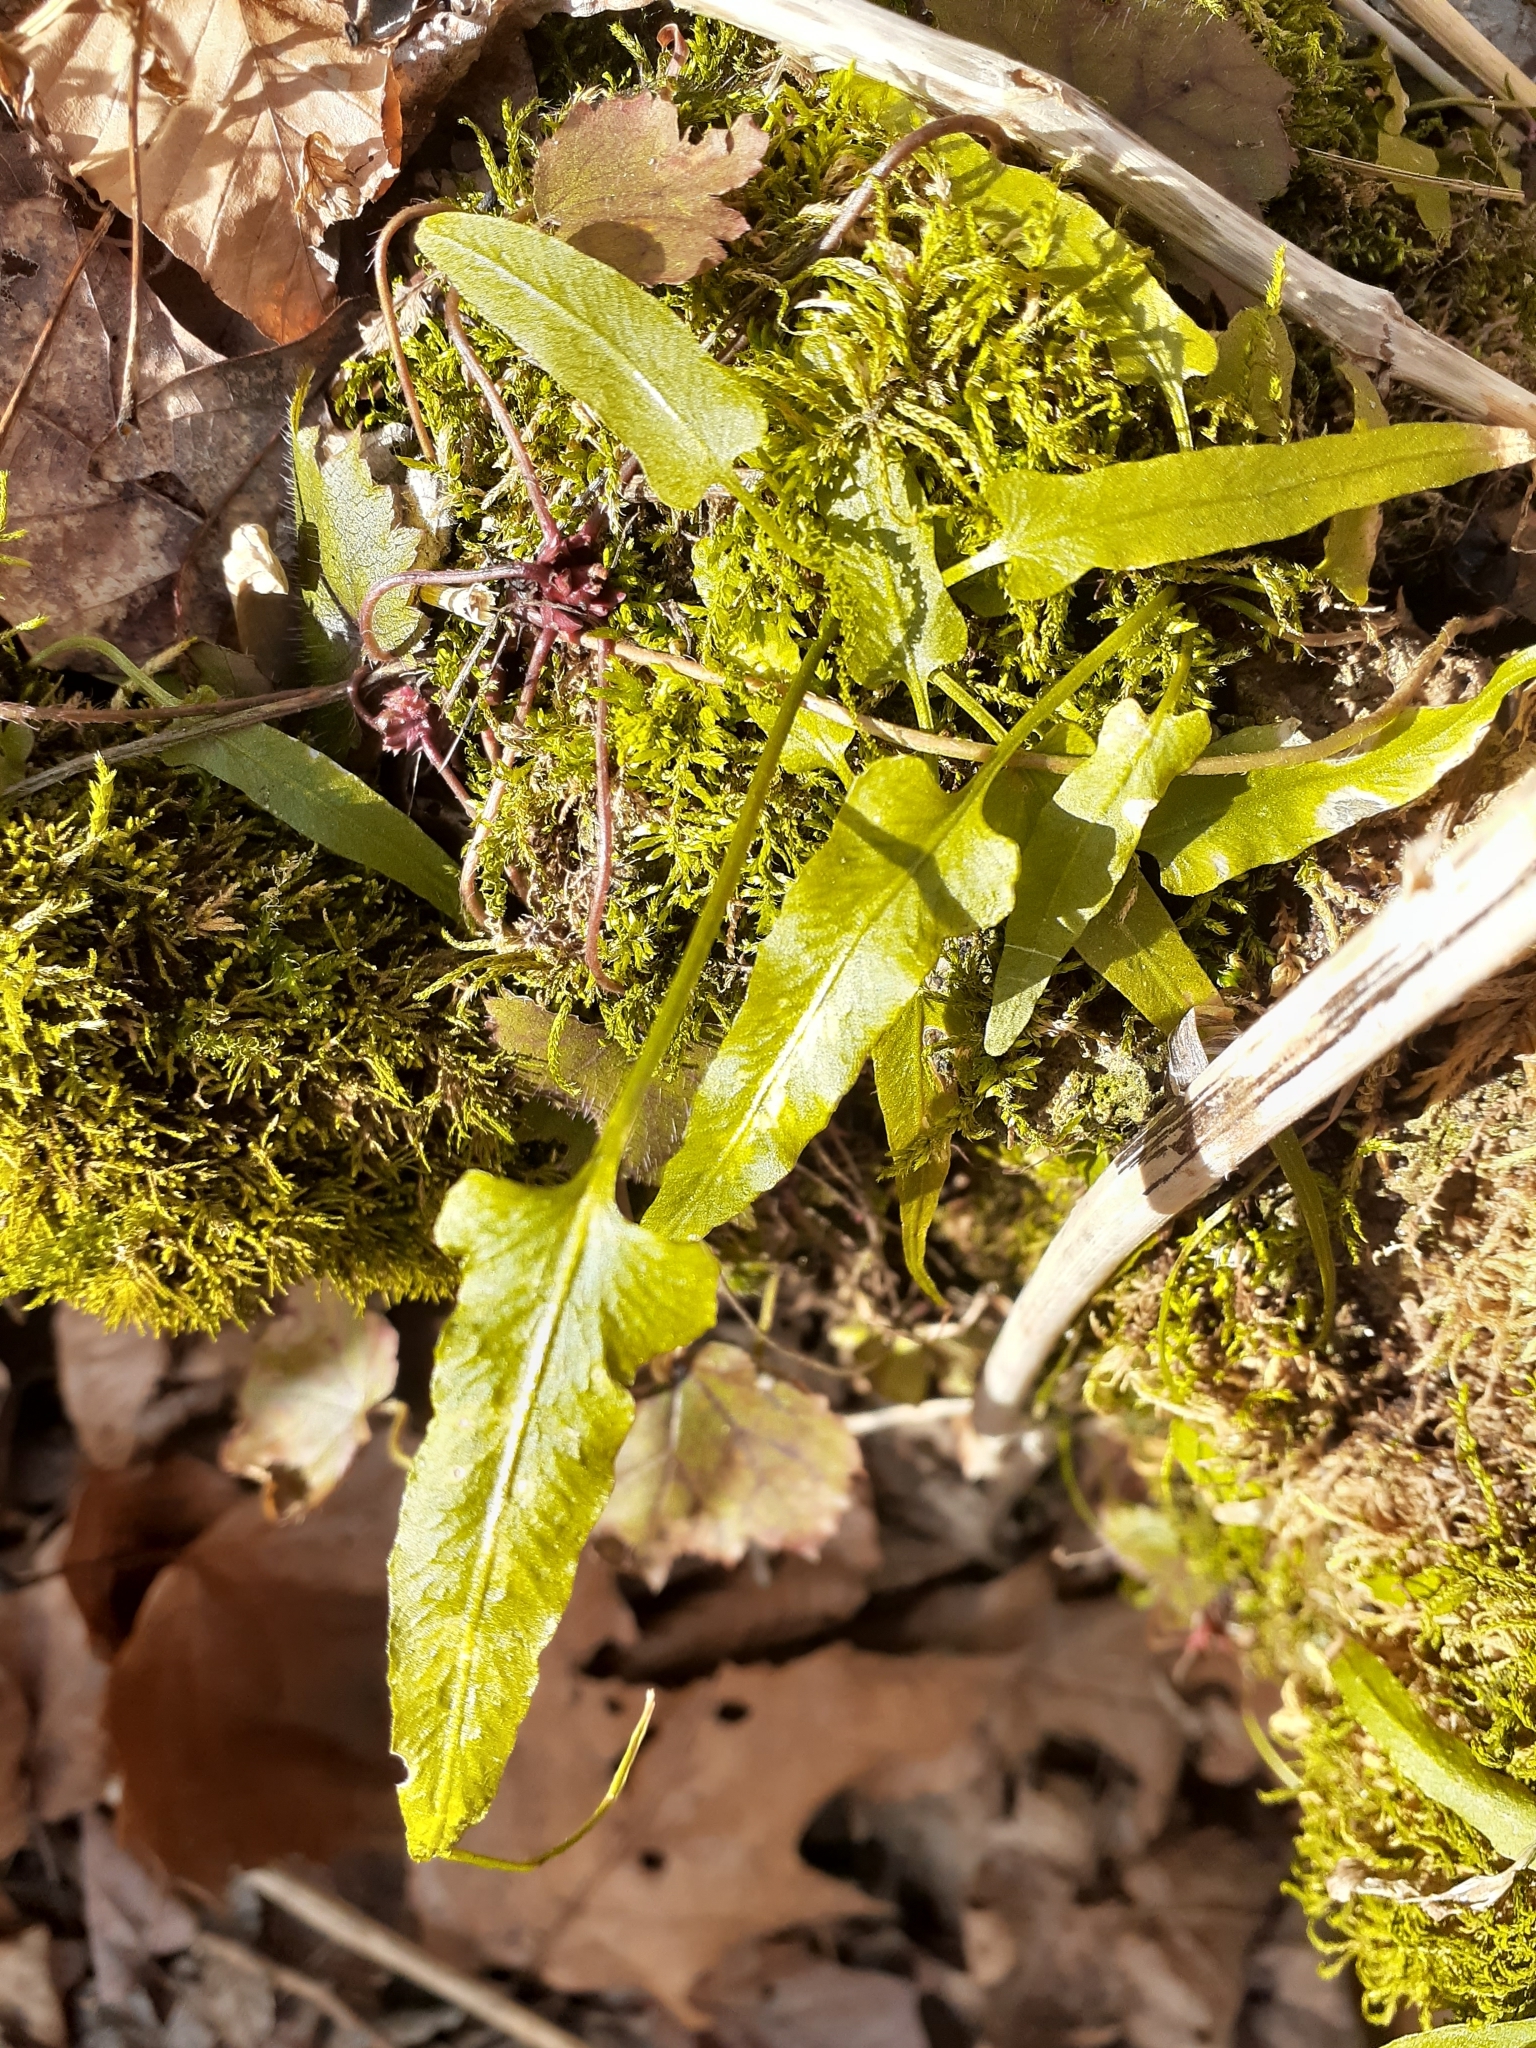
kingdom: Plantae
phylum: Tracheophyta
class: Polypodiopsida
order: Polypodiales
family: Aspleniaceae
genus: Asplenium
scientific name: Asplenium rhizophyllum
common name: Walking fern
